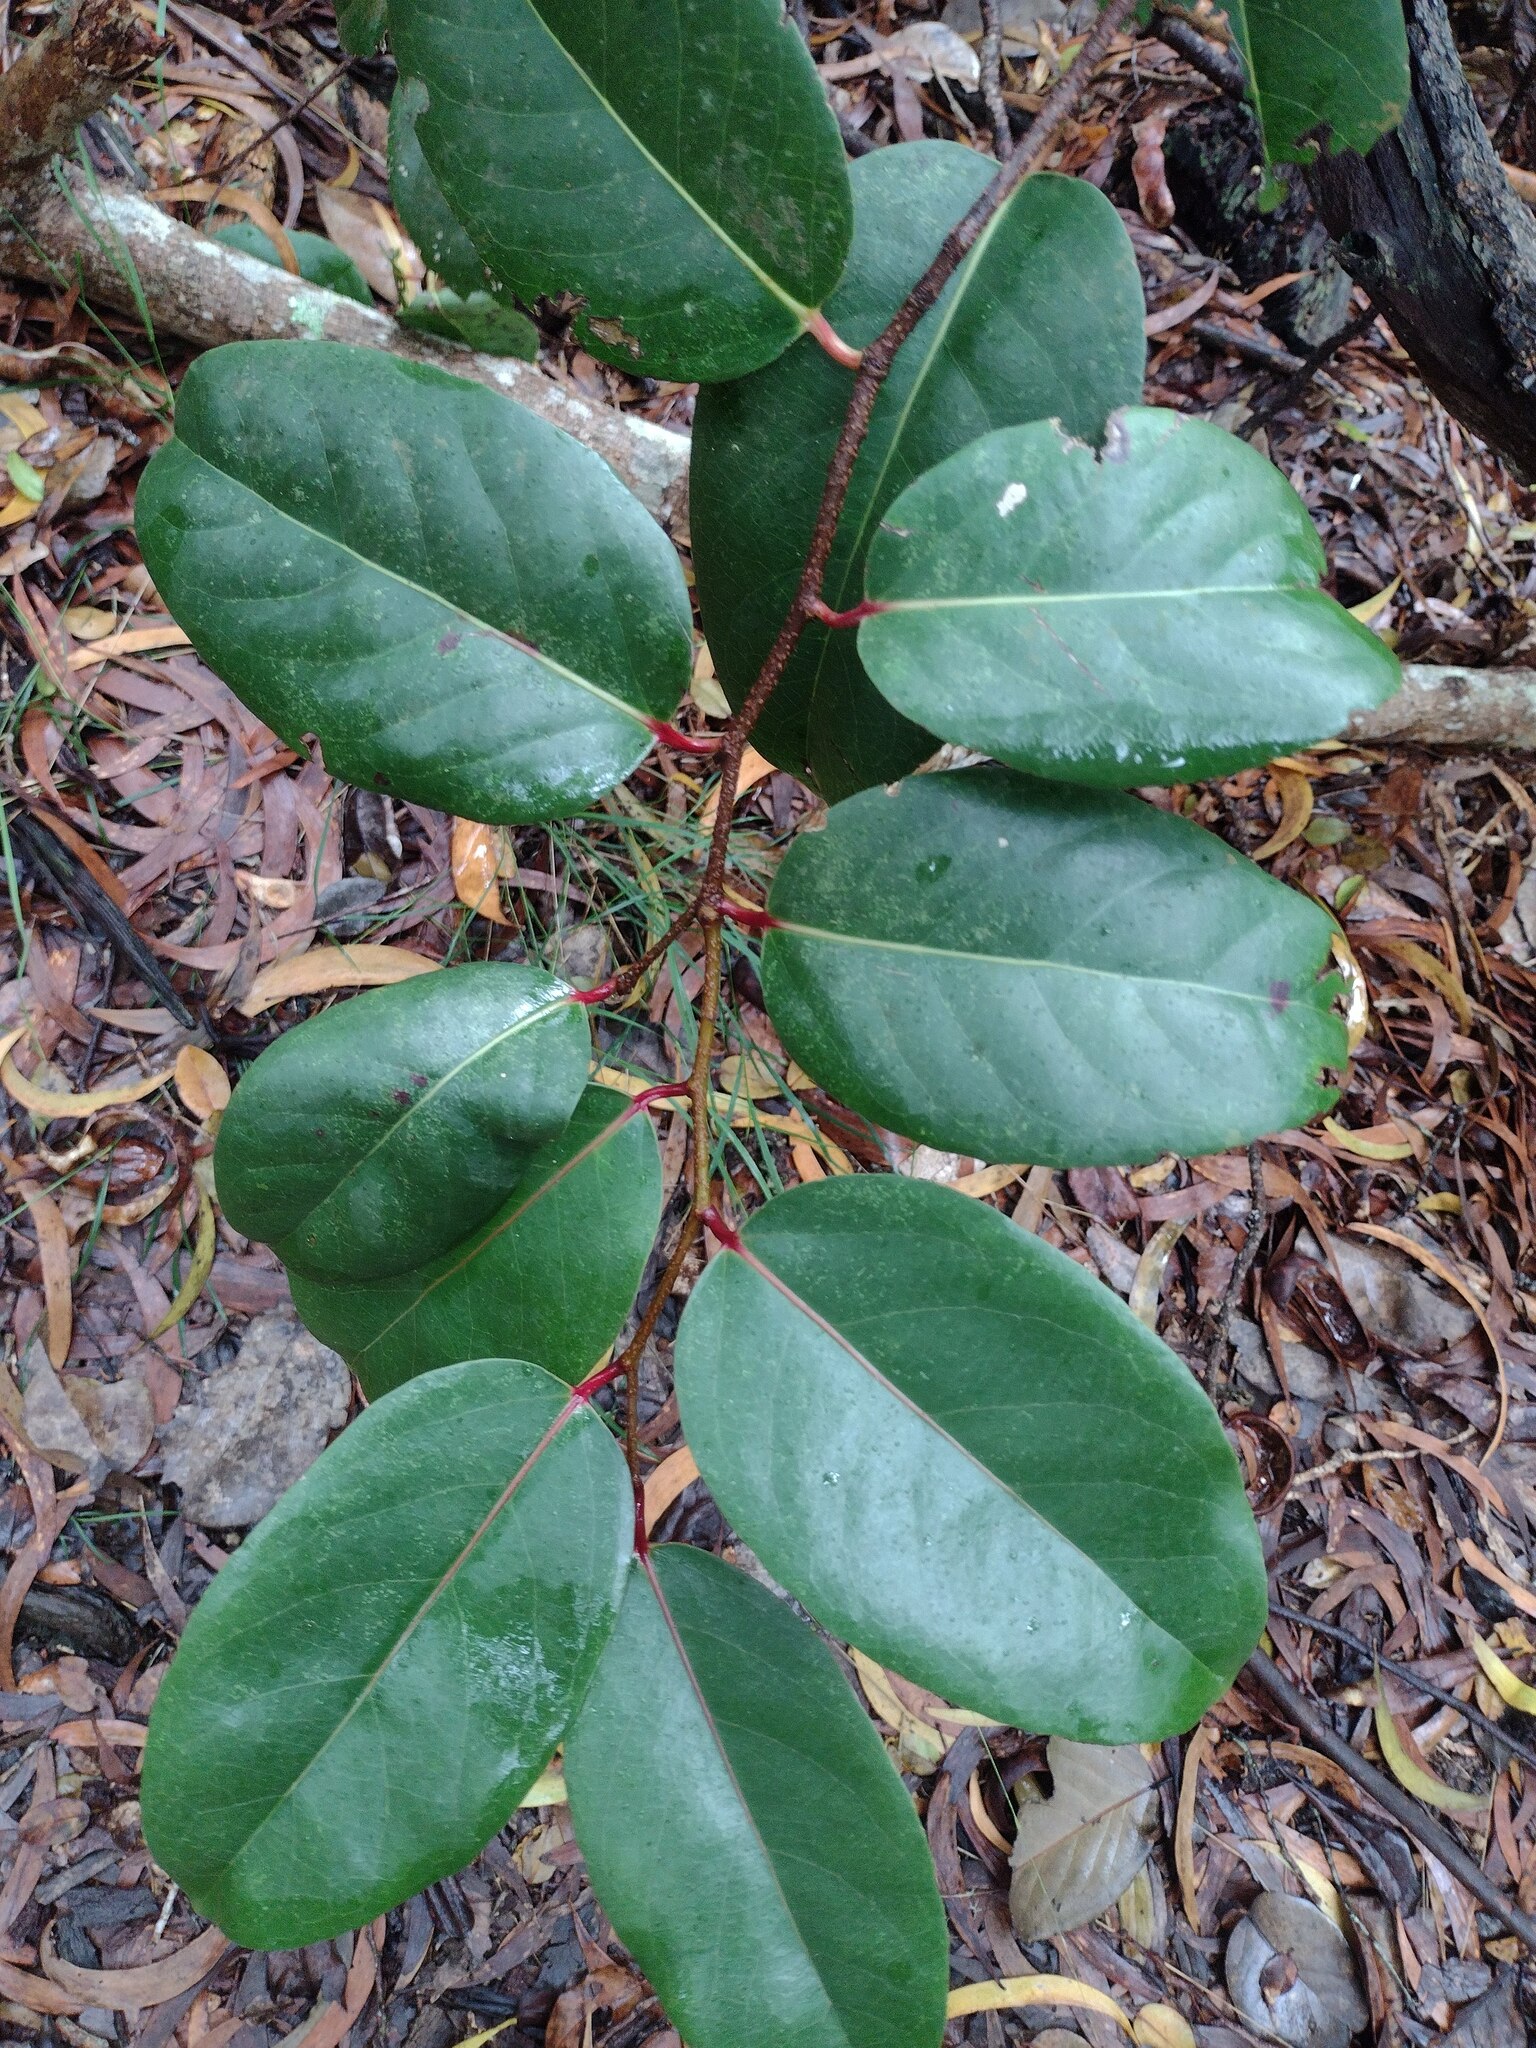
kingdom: Plantae
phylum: Tracheophyta
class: Magnoliopsida
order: Malpighiales
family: Salicaceae
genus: Xylosma
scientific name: Xylosma hawaiense
